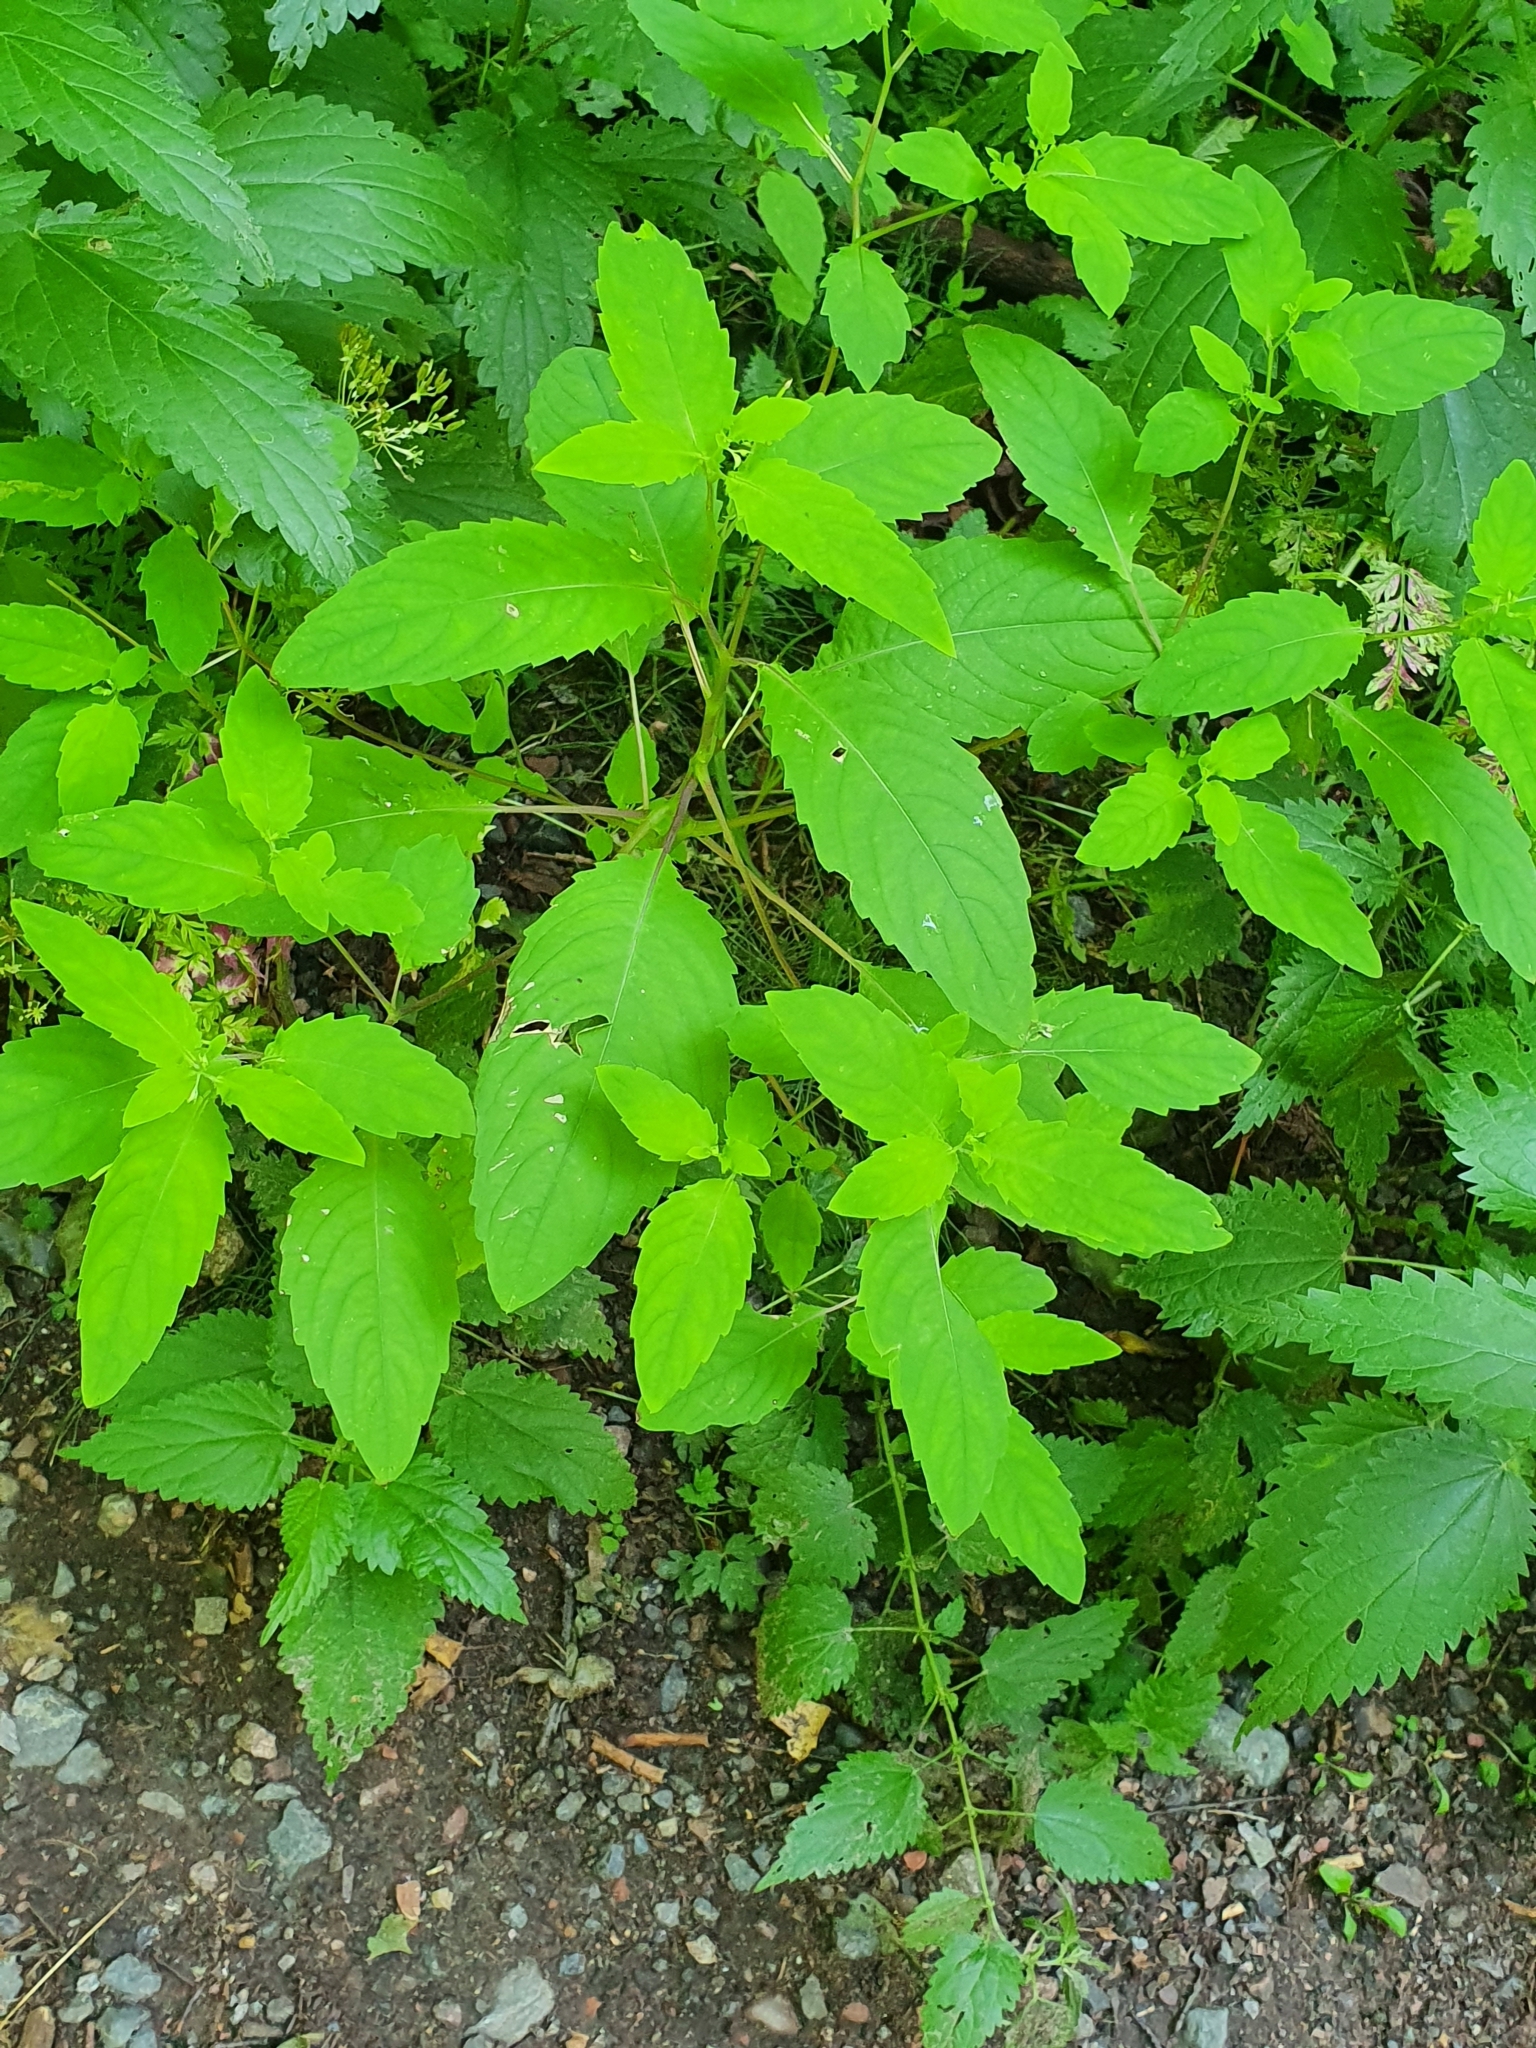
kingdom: Plantae
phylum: Tracheophyta
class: Magnoliopsida
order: Ericales
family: Balsaminaceae
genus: Impatiens
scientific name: Impatiens noli-tangere
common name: Touch-me-not balsam
